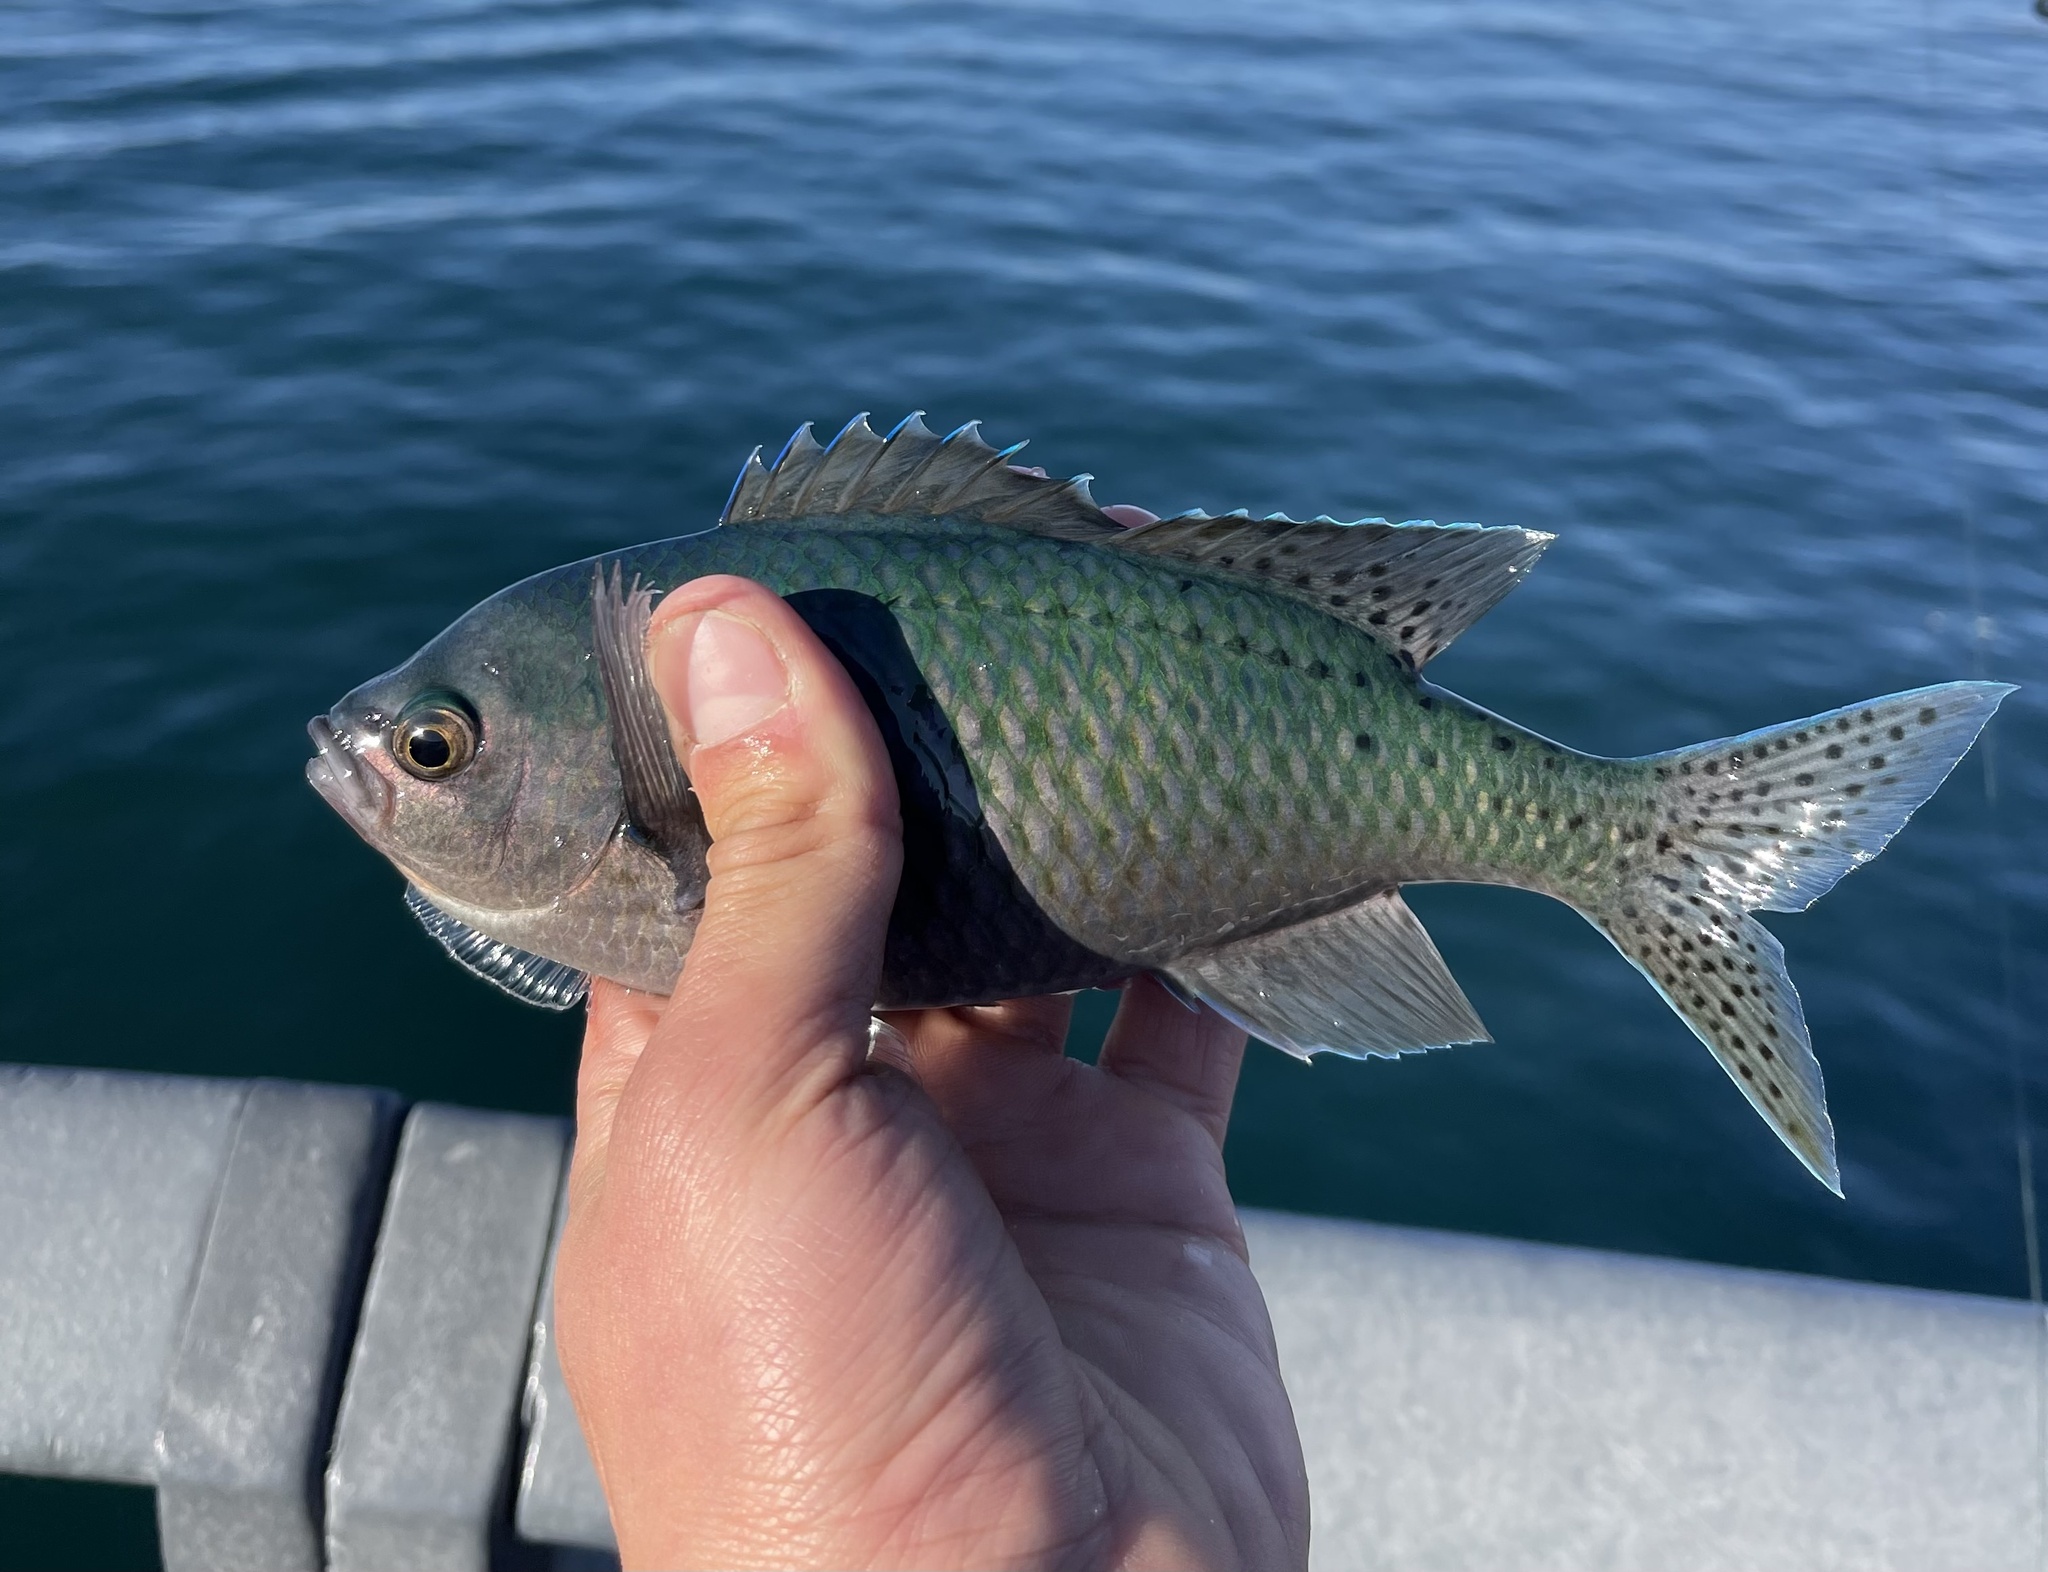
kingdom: Animalia
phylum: Chordata
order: Perciformes
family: Pomacentridae
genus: Chromis
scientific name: Chromis punctipinnis
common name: Blacksmith
